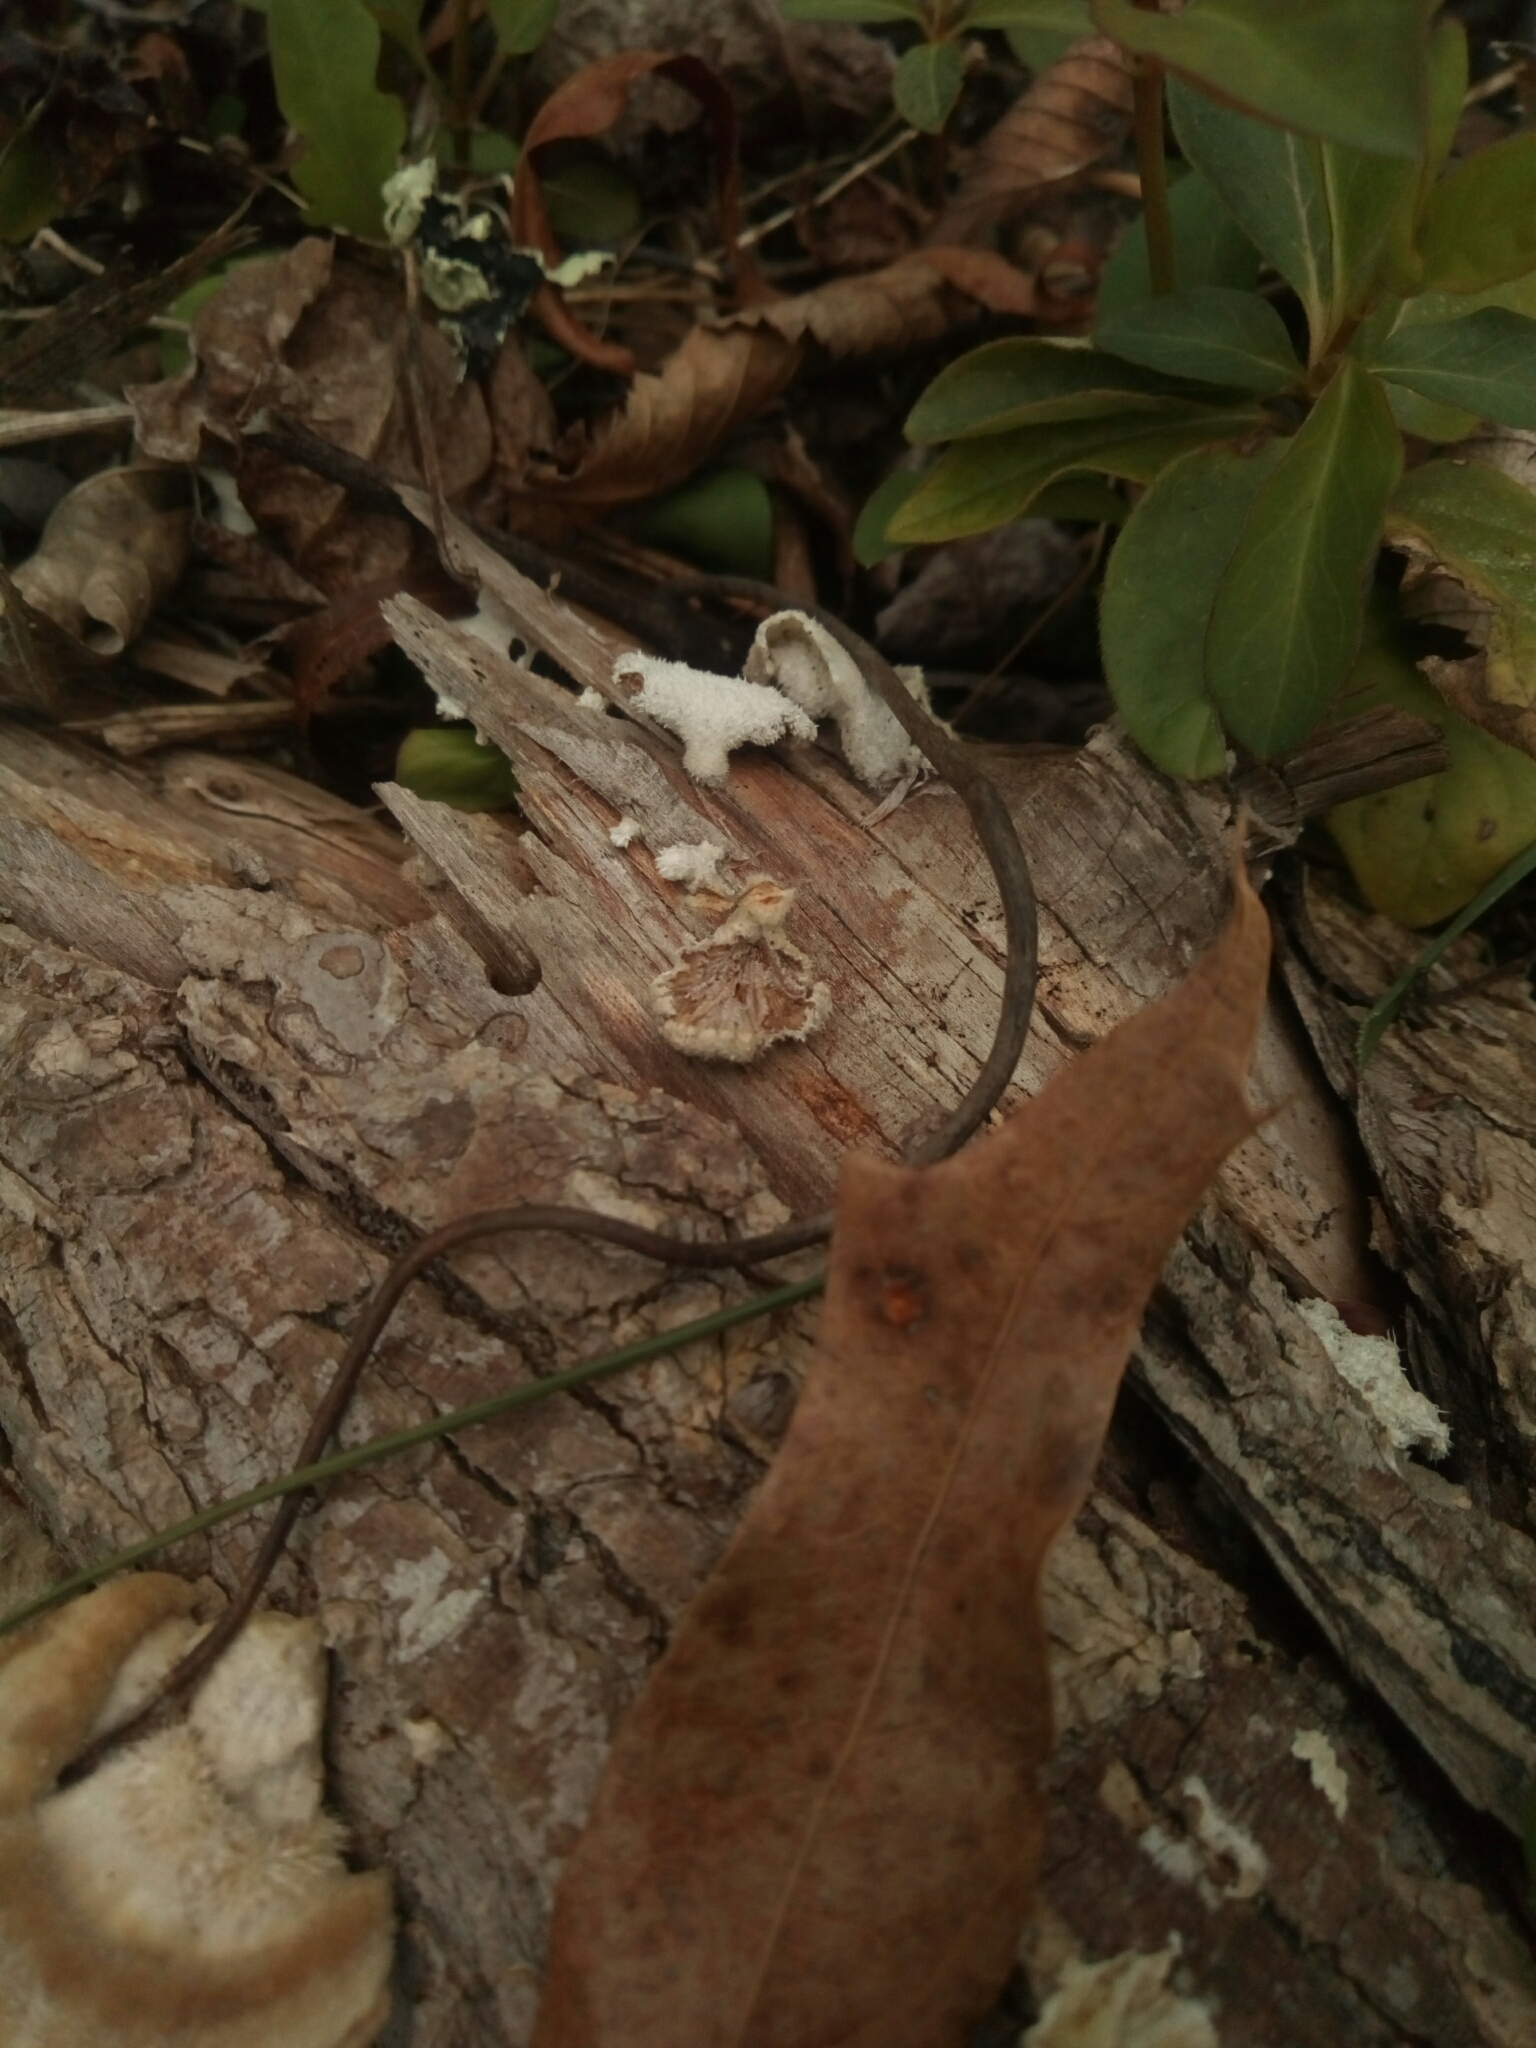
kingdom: Fungi
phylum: Basidiomycota
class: Agaricomycetes
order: Agaricales
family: Schizophyllaceae
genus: Schizophyllum
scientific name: Schizophyllum commune
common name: Common porecrust
